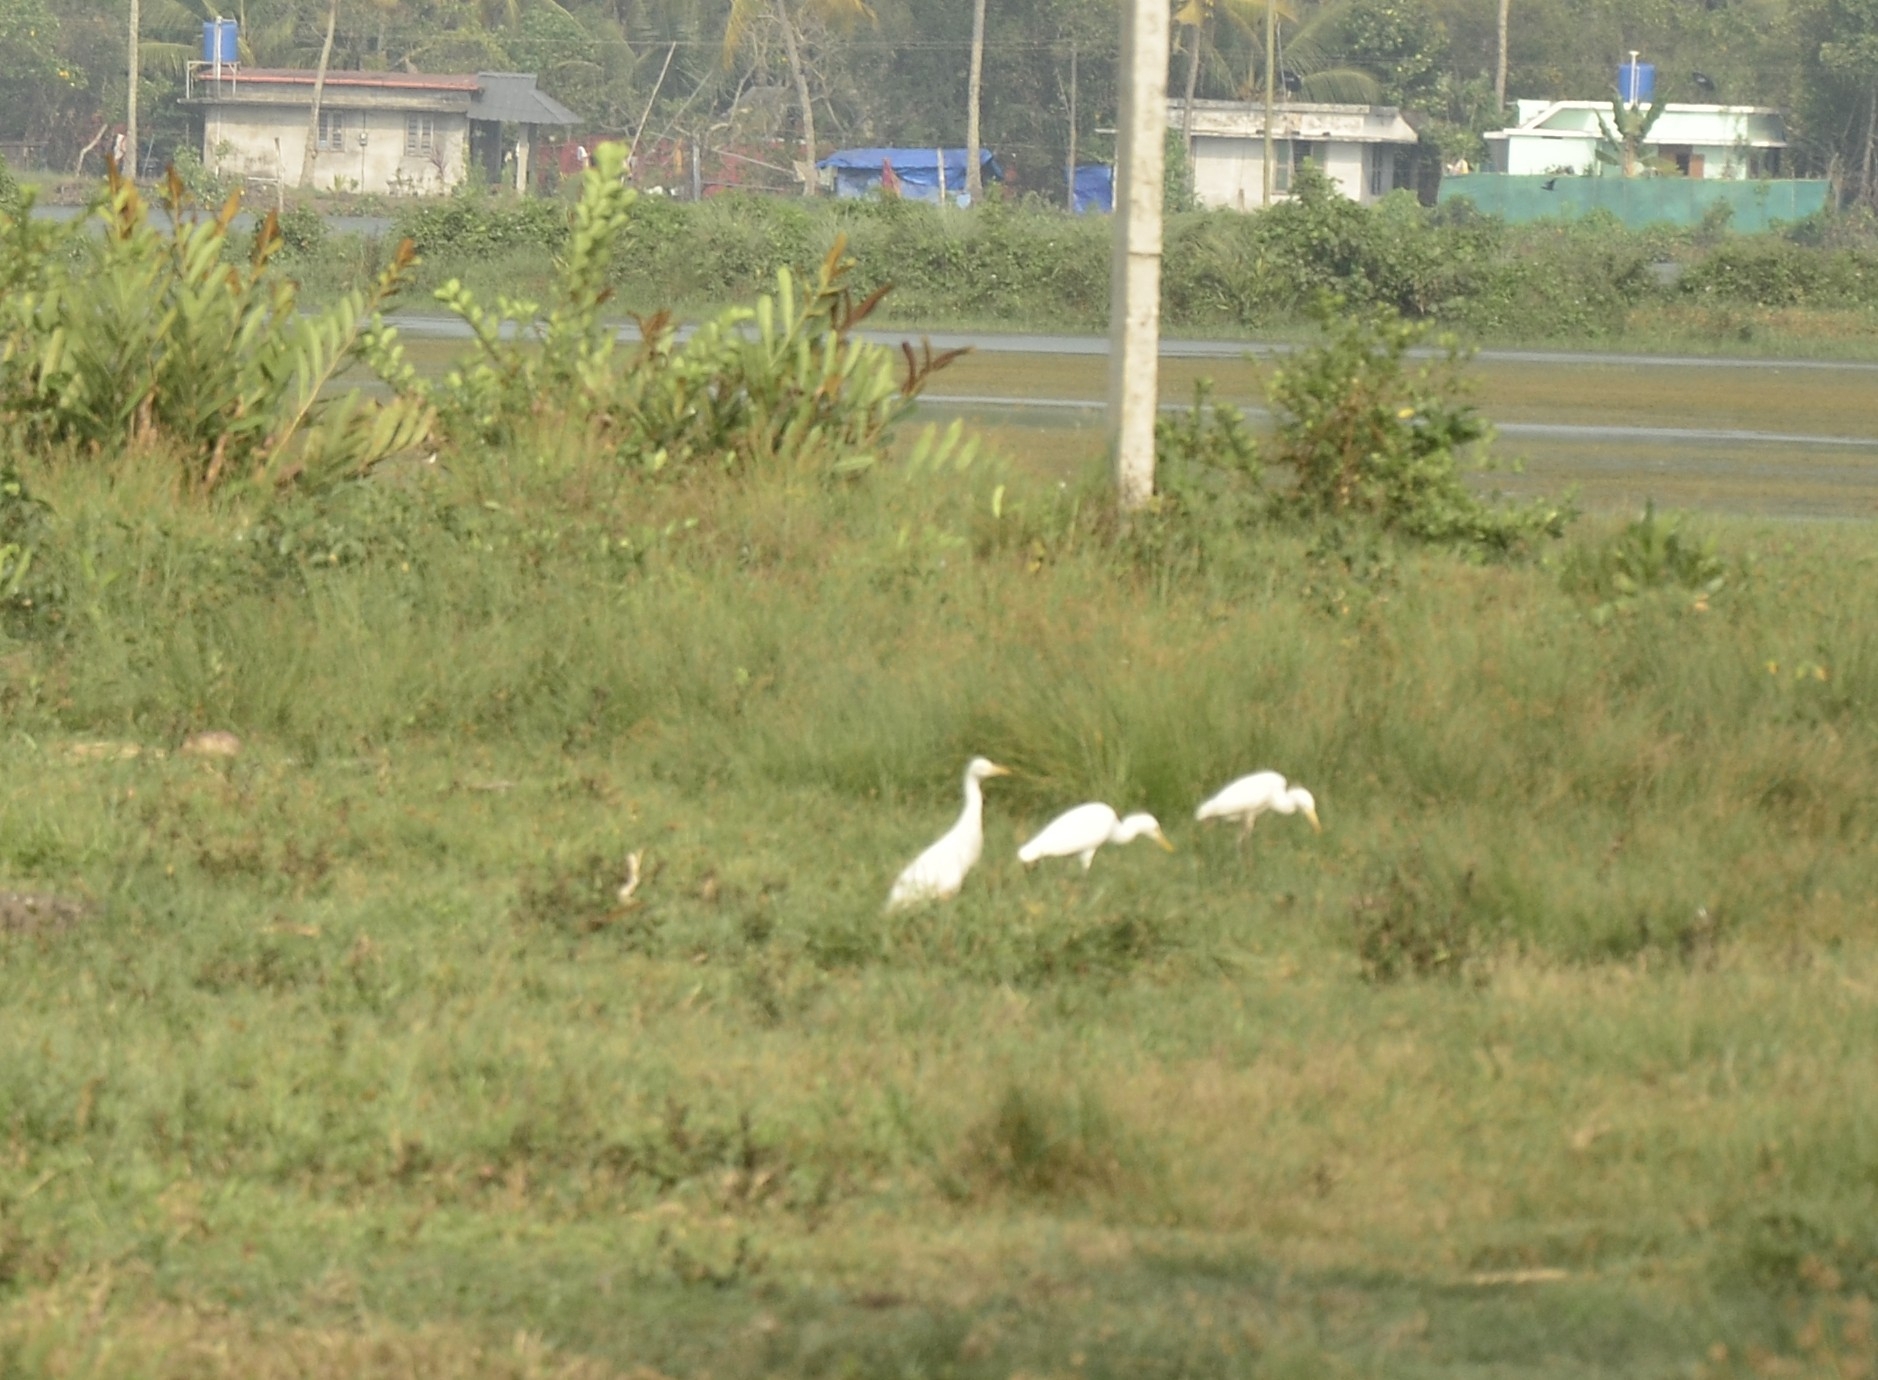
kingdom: Animalia
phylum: Chordata
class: Aves
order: Pelecaniformes
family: Ardeidae
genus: Bubulcus
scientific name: Bubulcus coromandus
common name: Eastern cattle egret
